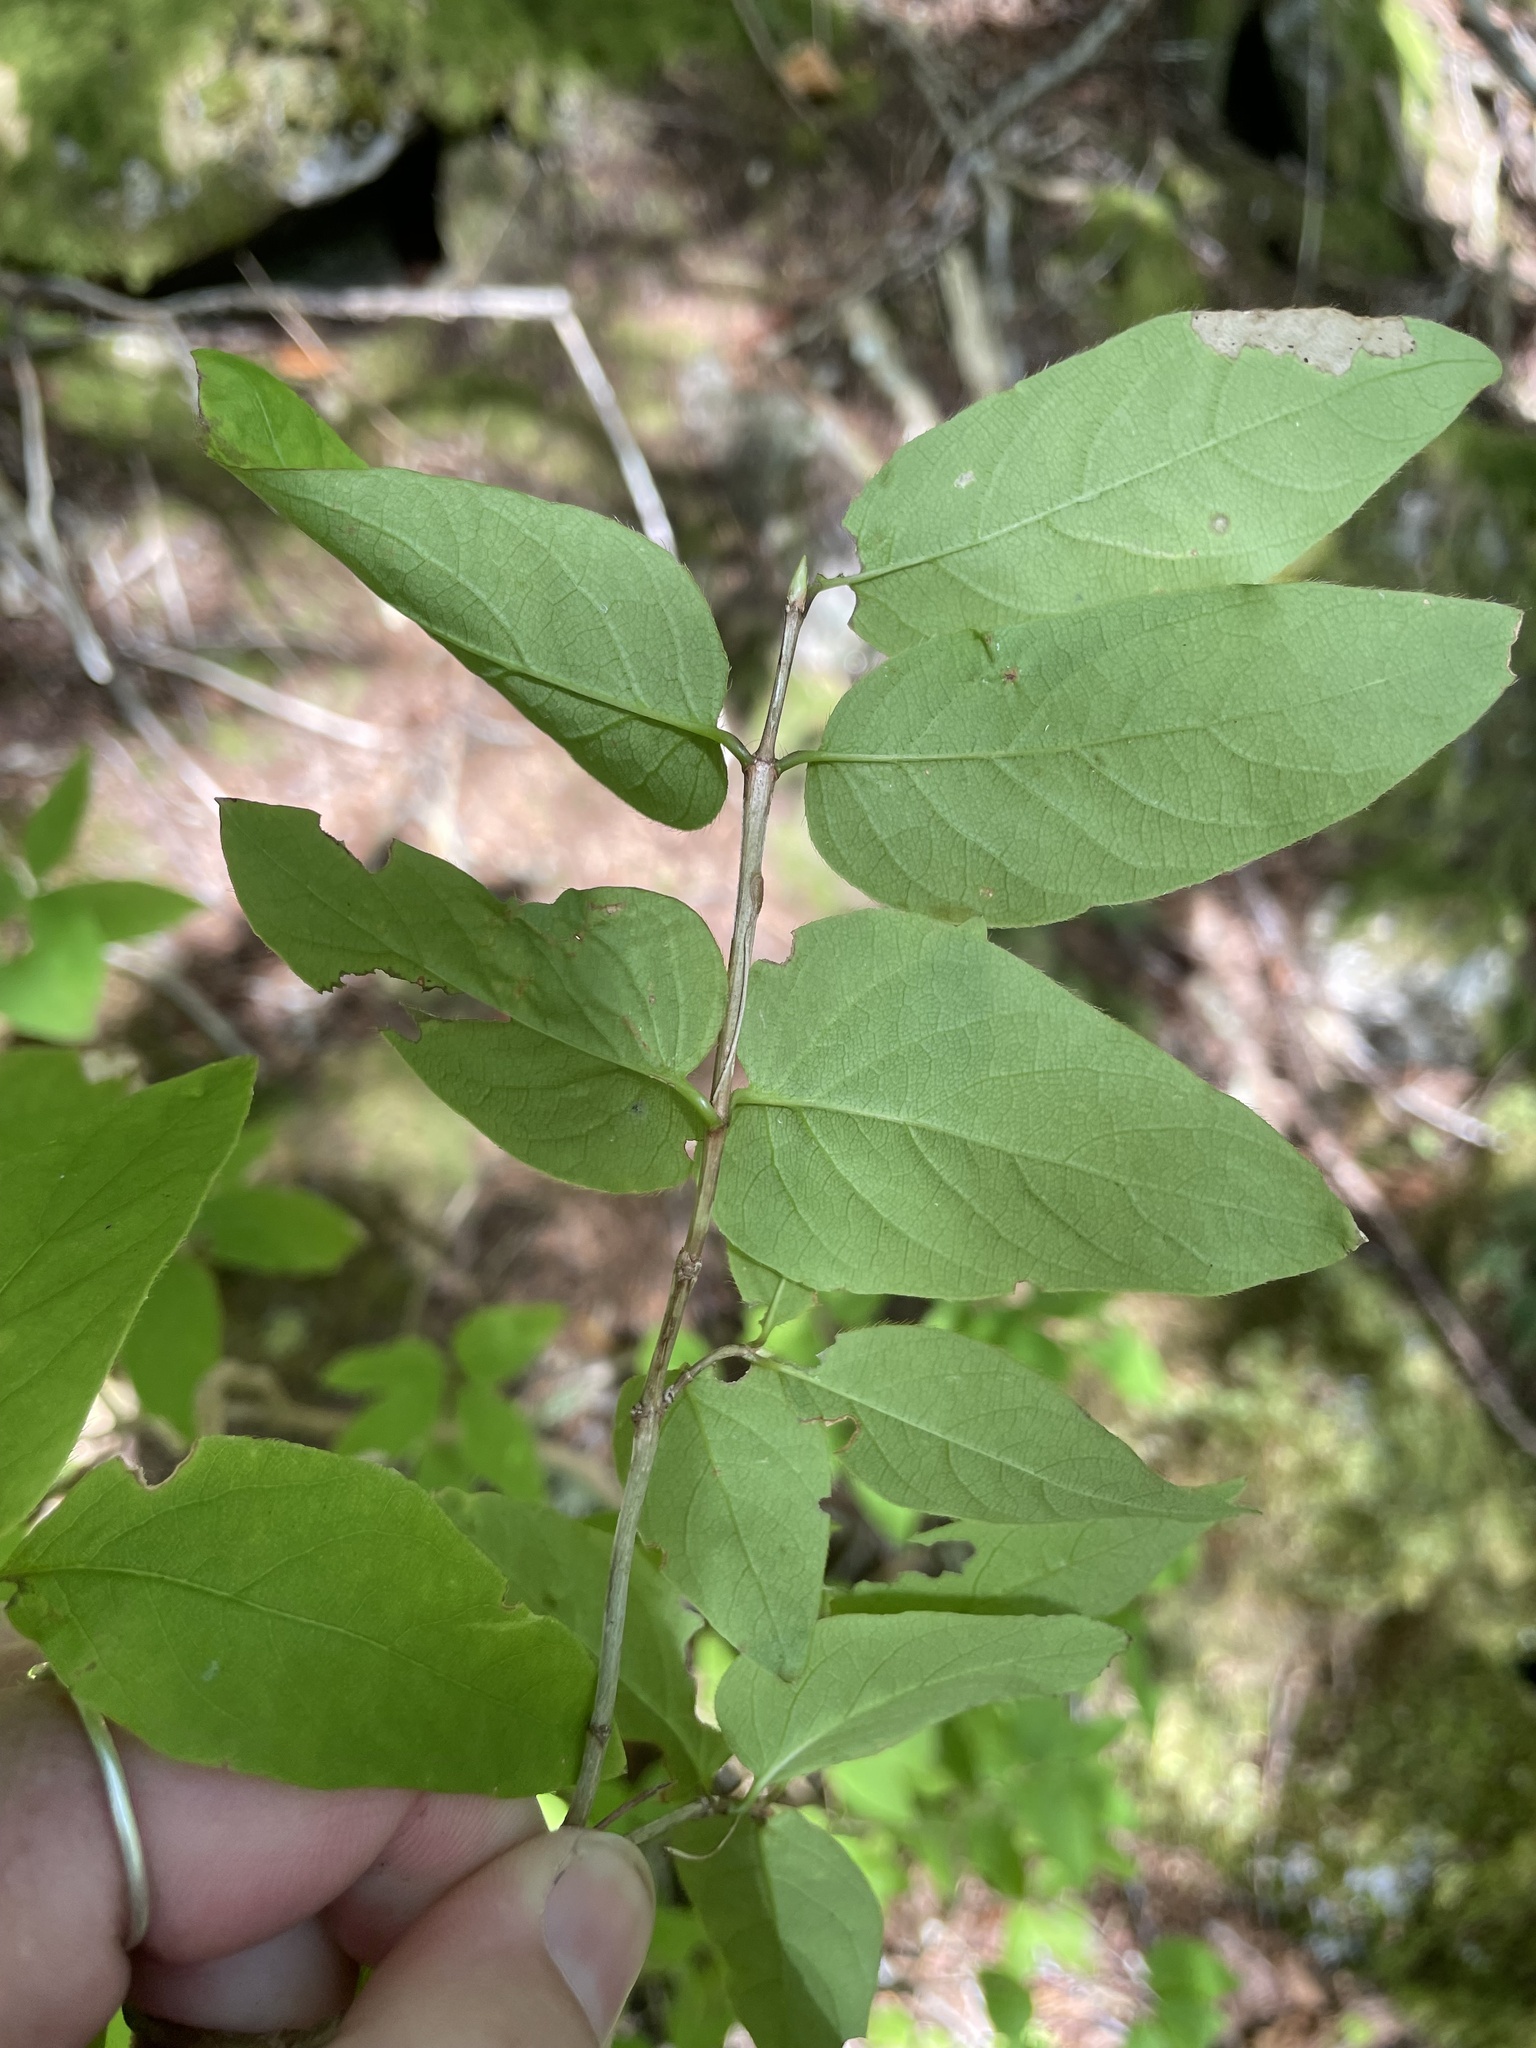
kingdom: Plantae
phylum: Tracheophyta
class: Magnoliopsida
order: Dipsacales
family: Caprifoliaceae
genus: Lonicera
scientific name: Lonicera canadensis
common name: American fly-honeysuckle
